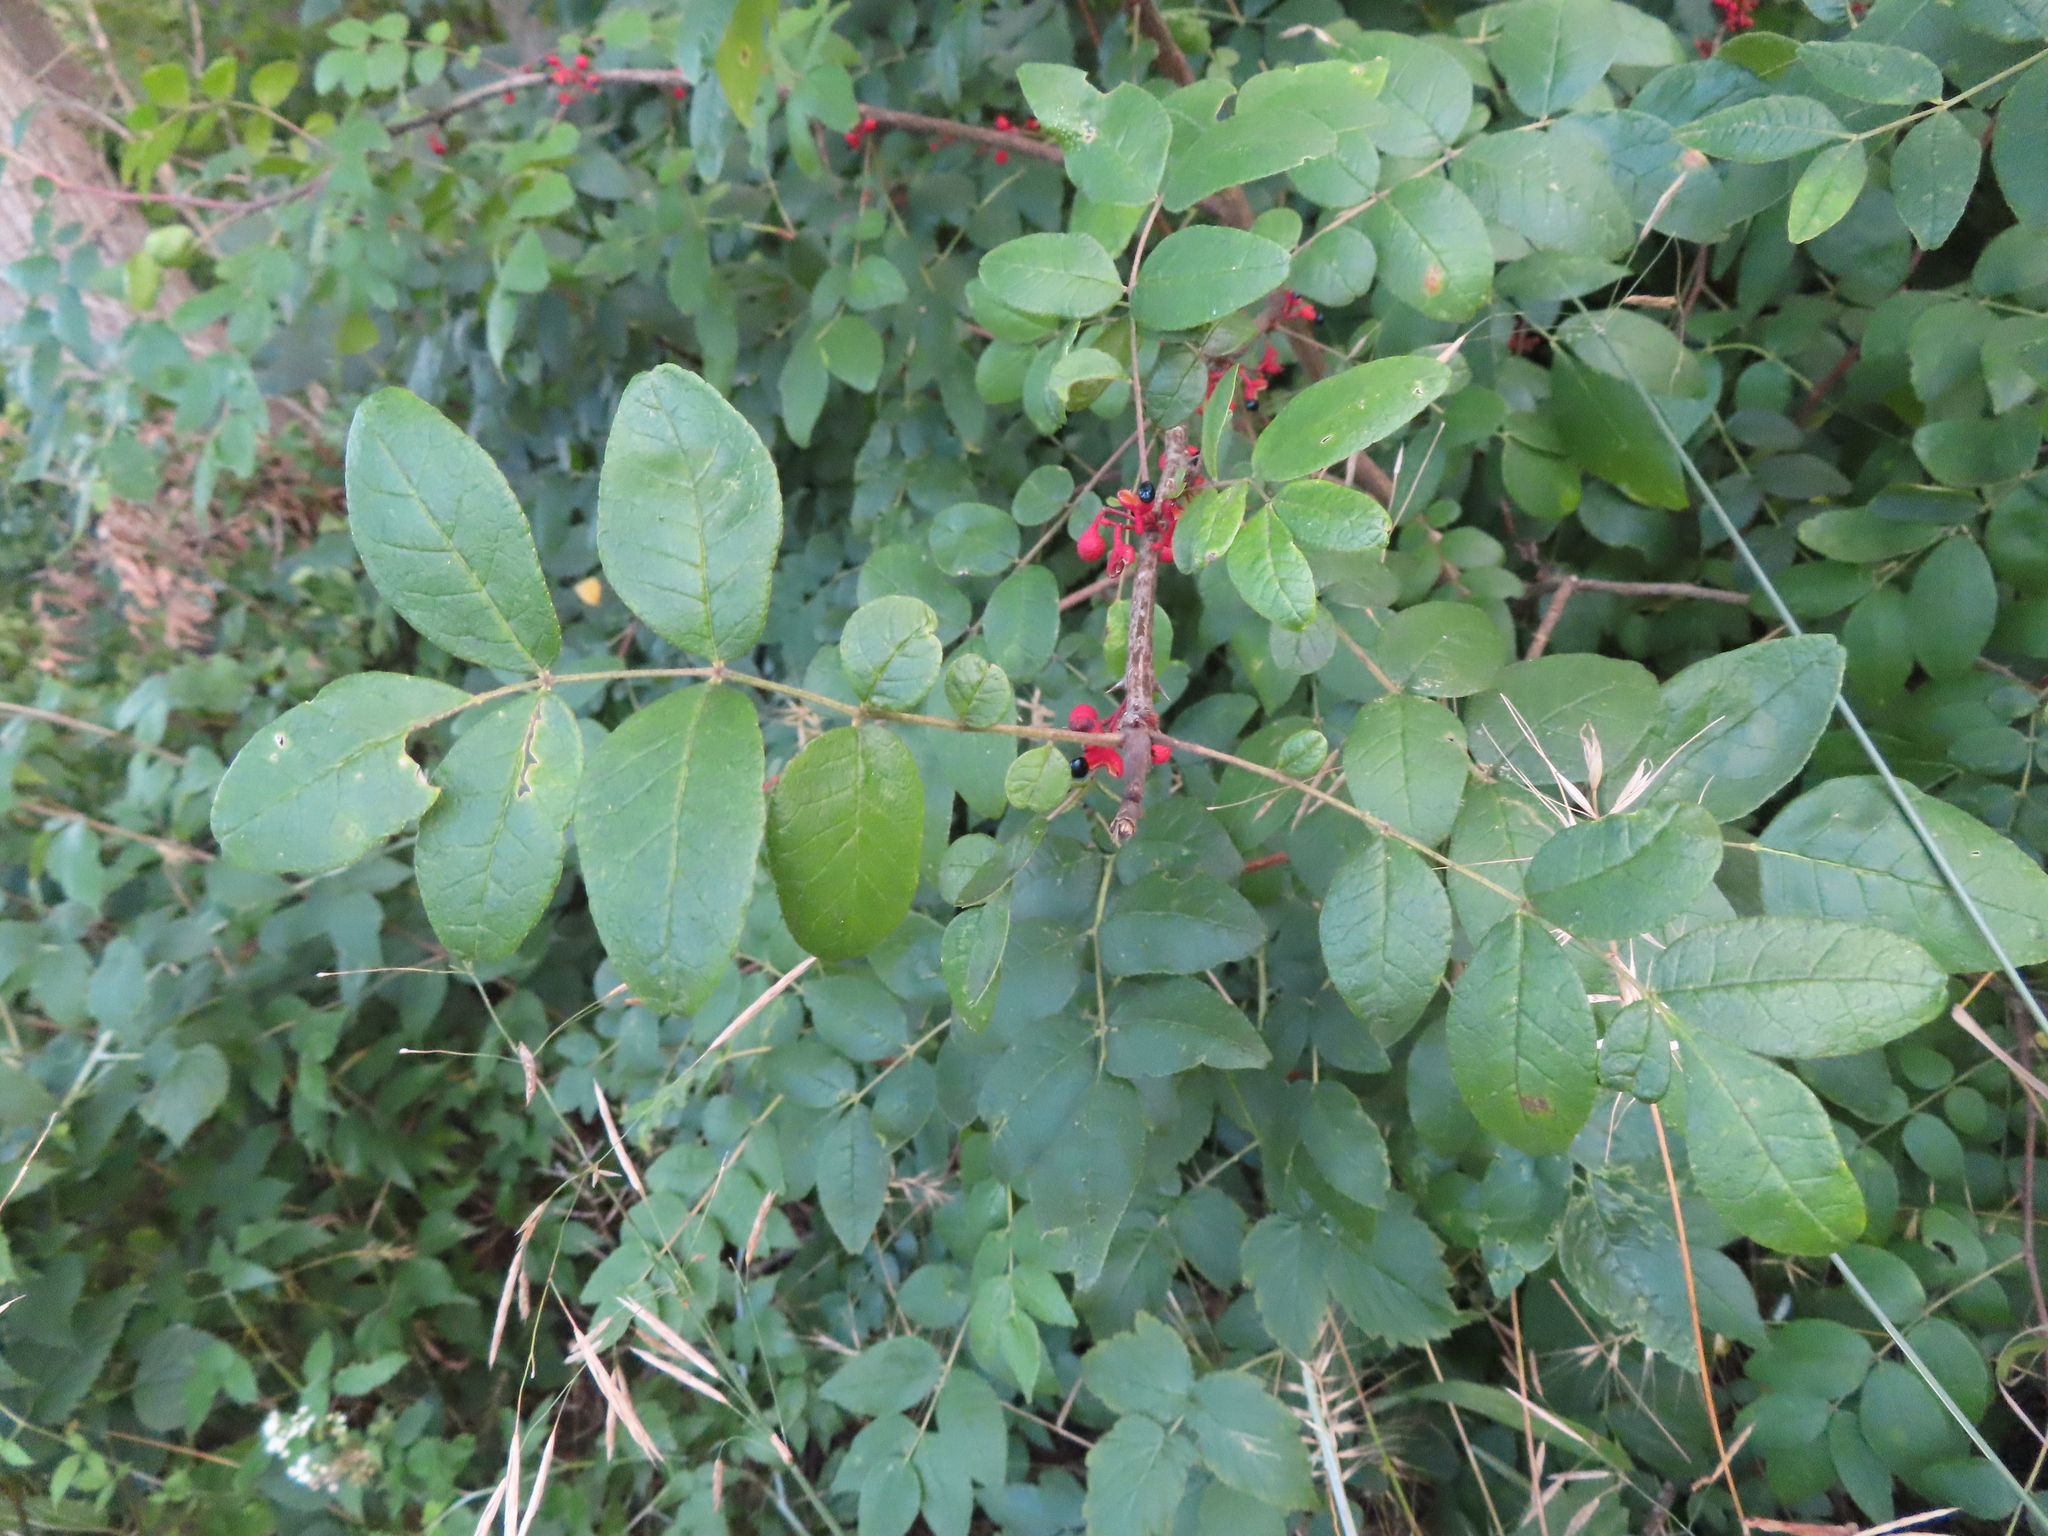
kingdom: Plantae
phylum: Tracheophyta
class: Magnoliopsida
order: Sapindales
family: Rutaceae
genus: Zanthoxylum
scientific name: Zanthoxylum americanum
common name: Northern prickly-ash
